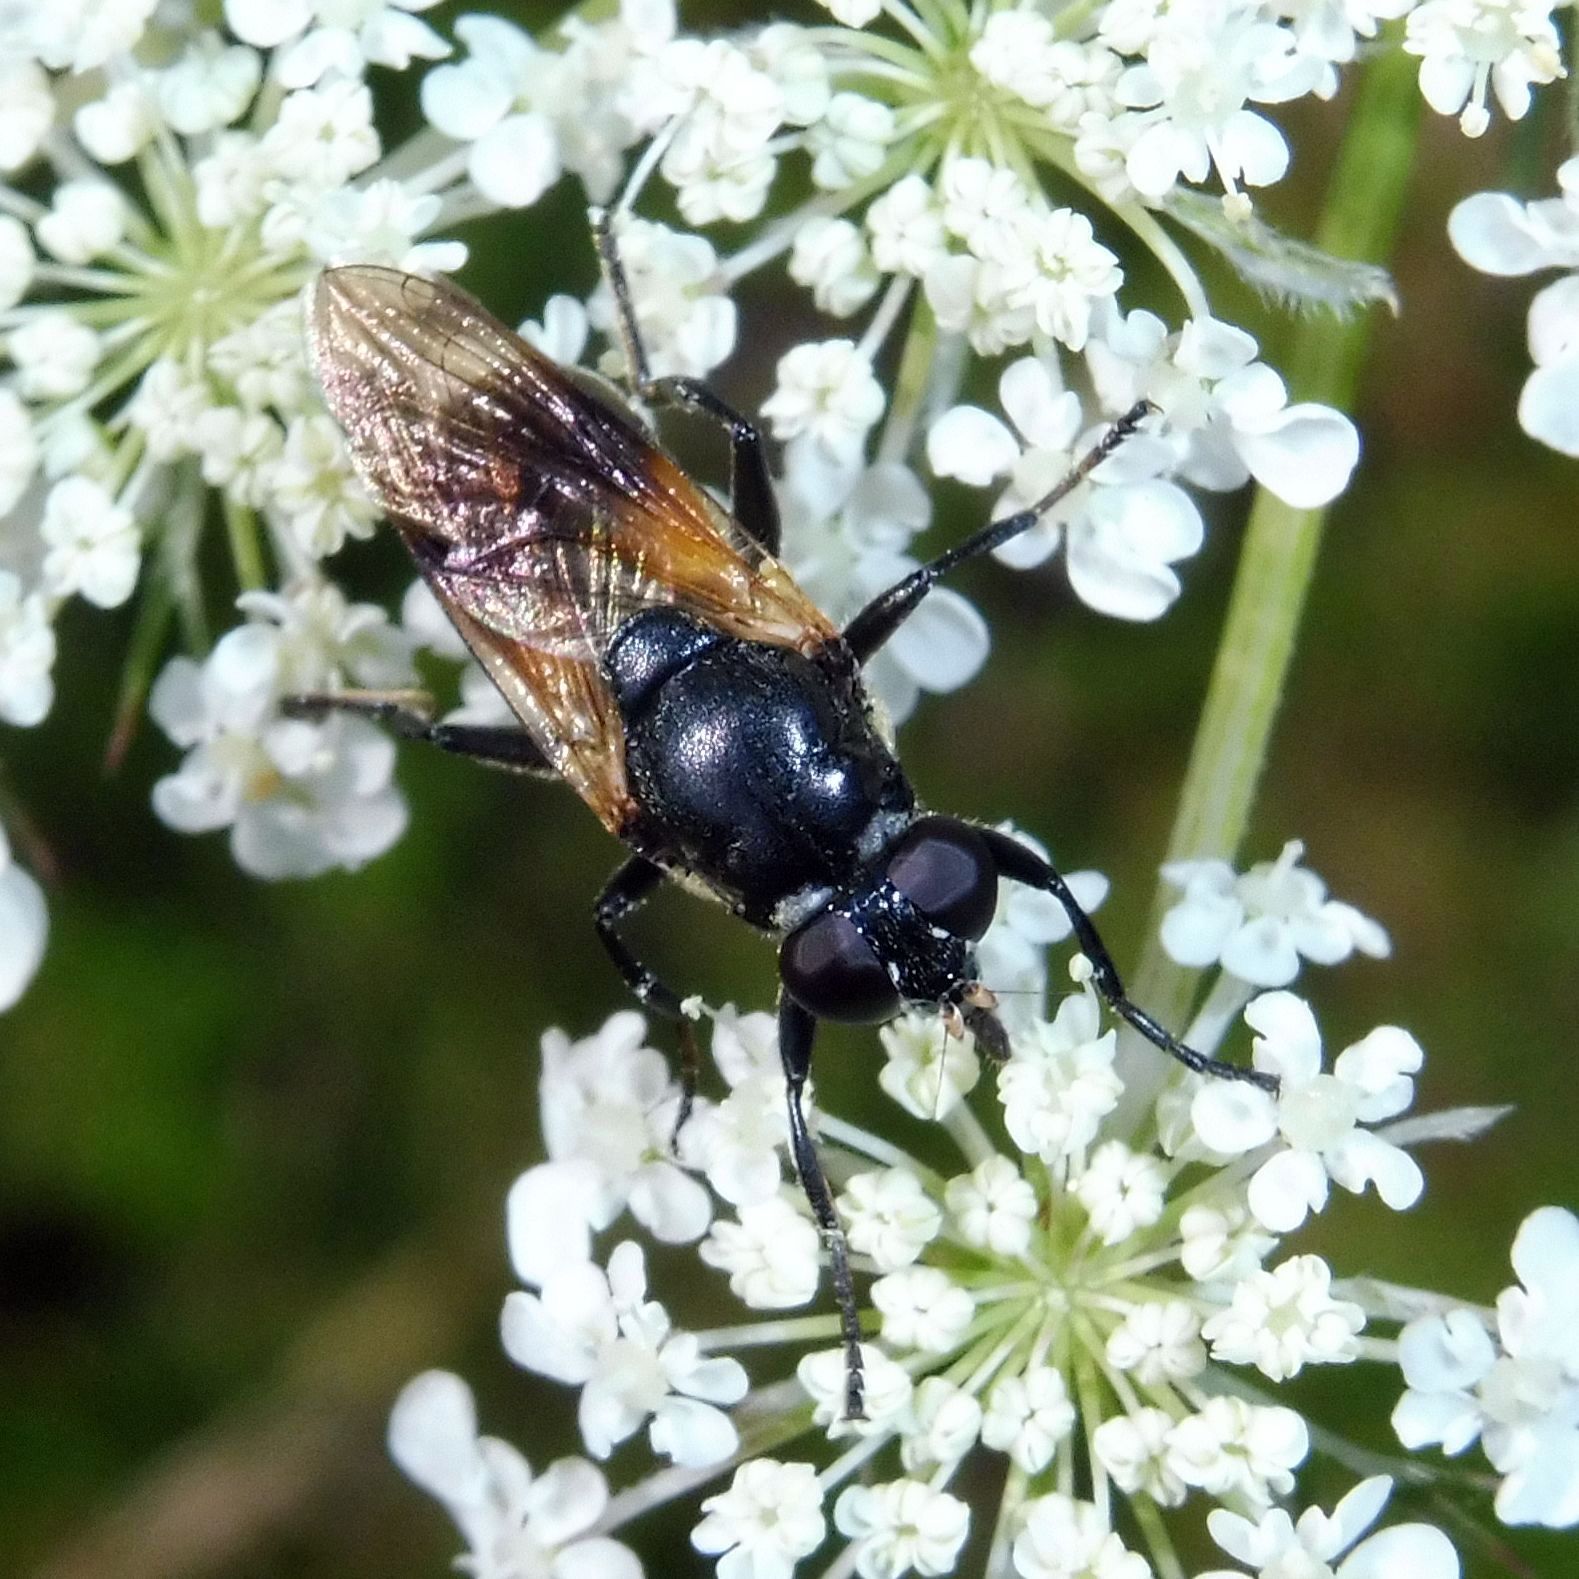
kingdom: Animalia
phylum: Arthropoda
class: Insecta
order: Diptera
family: Syrphidae
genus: Myolepta
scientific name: Myolepta dubia
